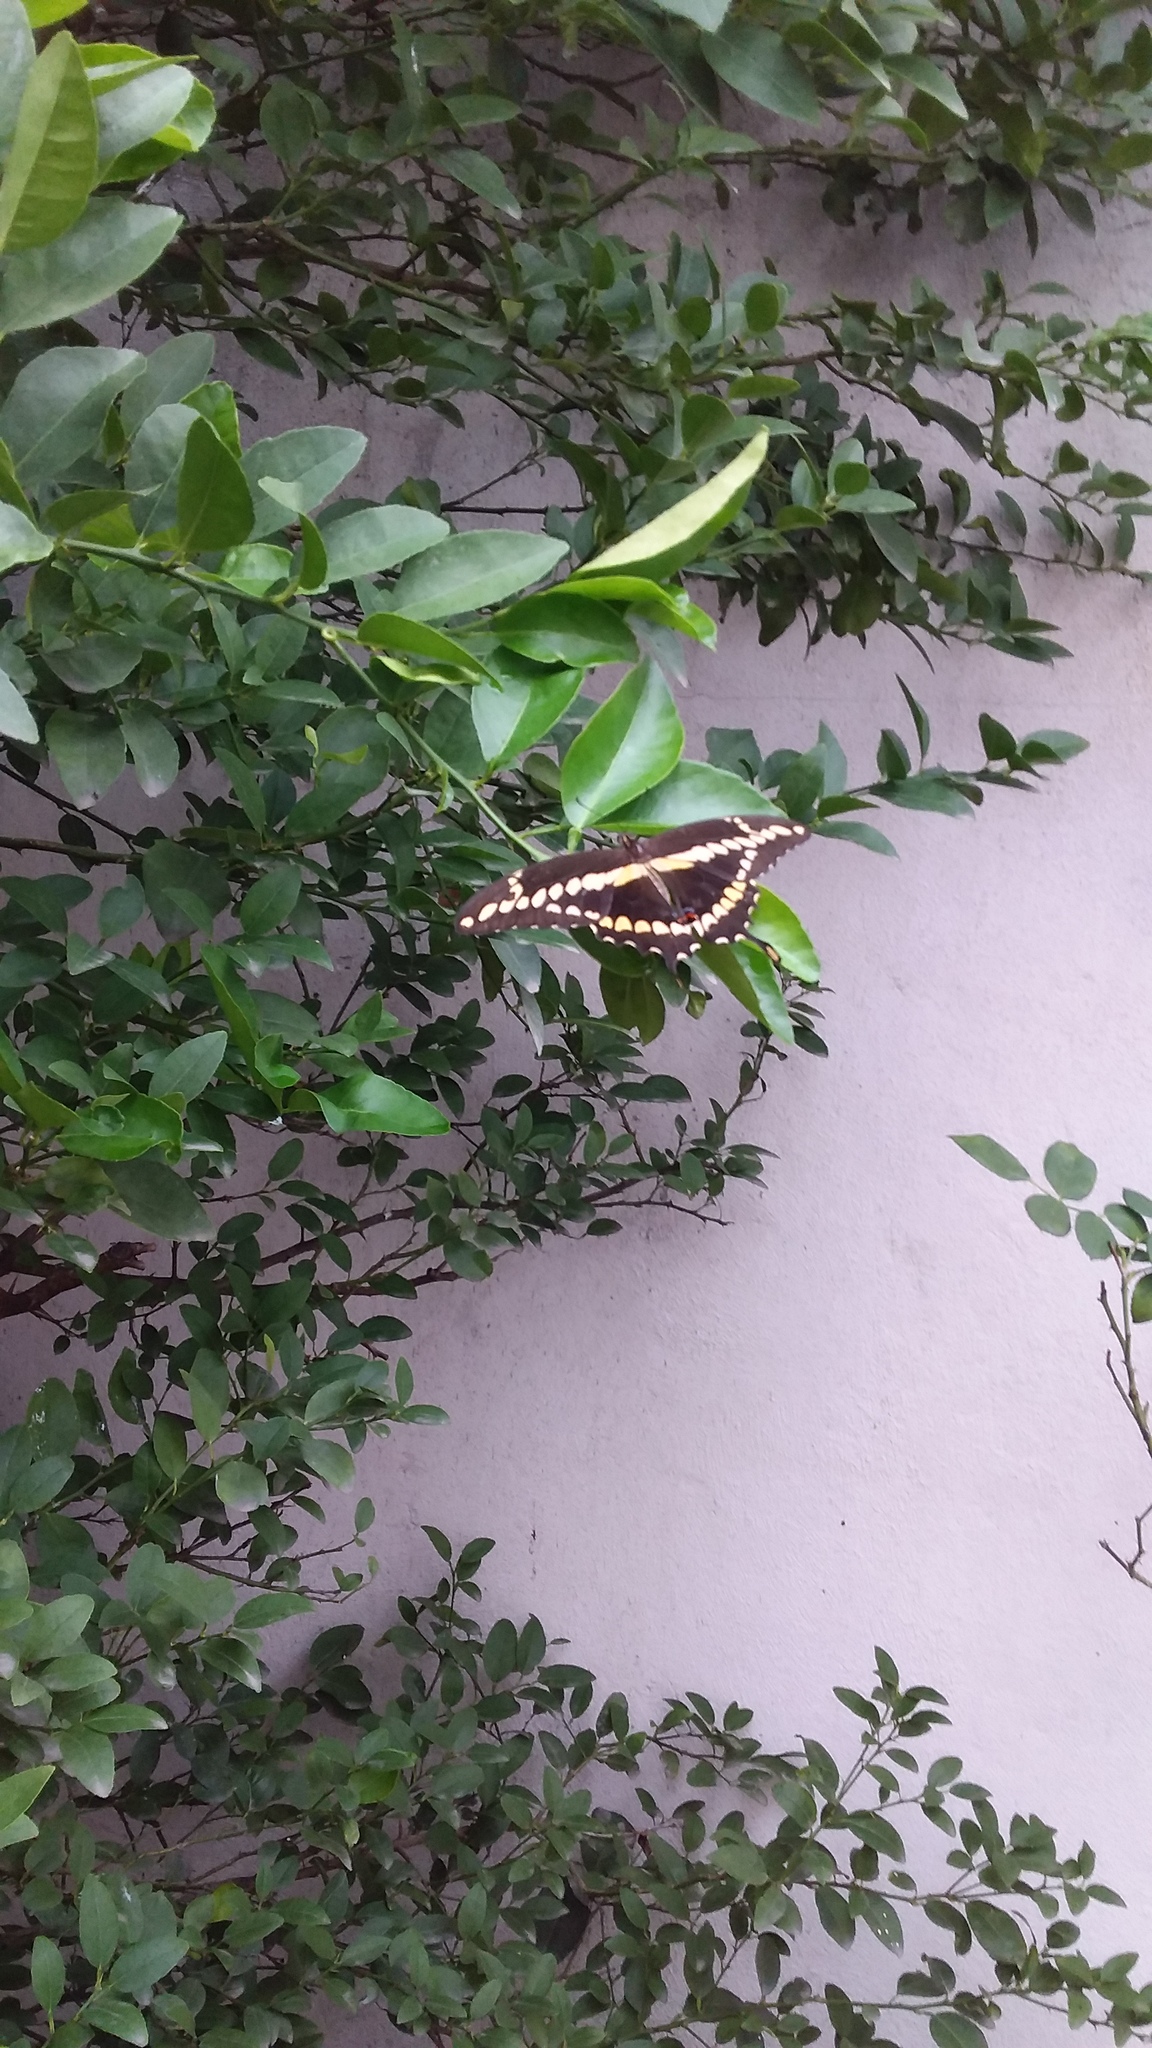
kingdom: Animalia
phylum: Arthropoda
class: Insecta
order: Lepidoptera
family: Papilionidae
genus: Papilio
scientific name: Papilio rumiko
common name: Western giant swallowtail
